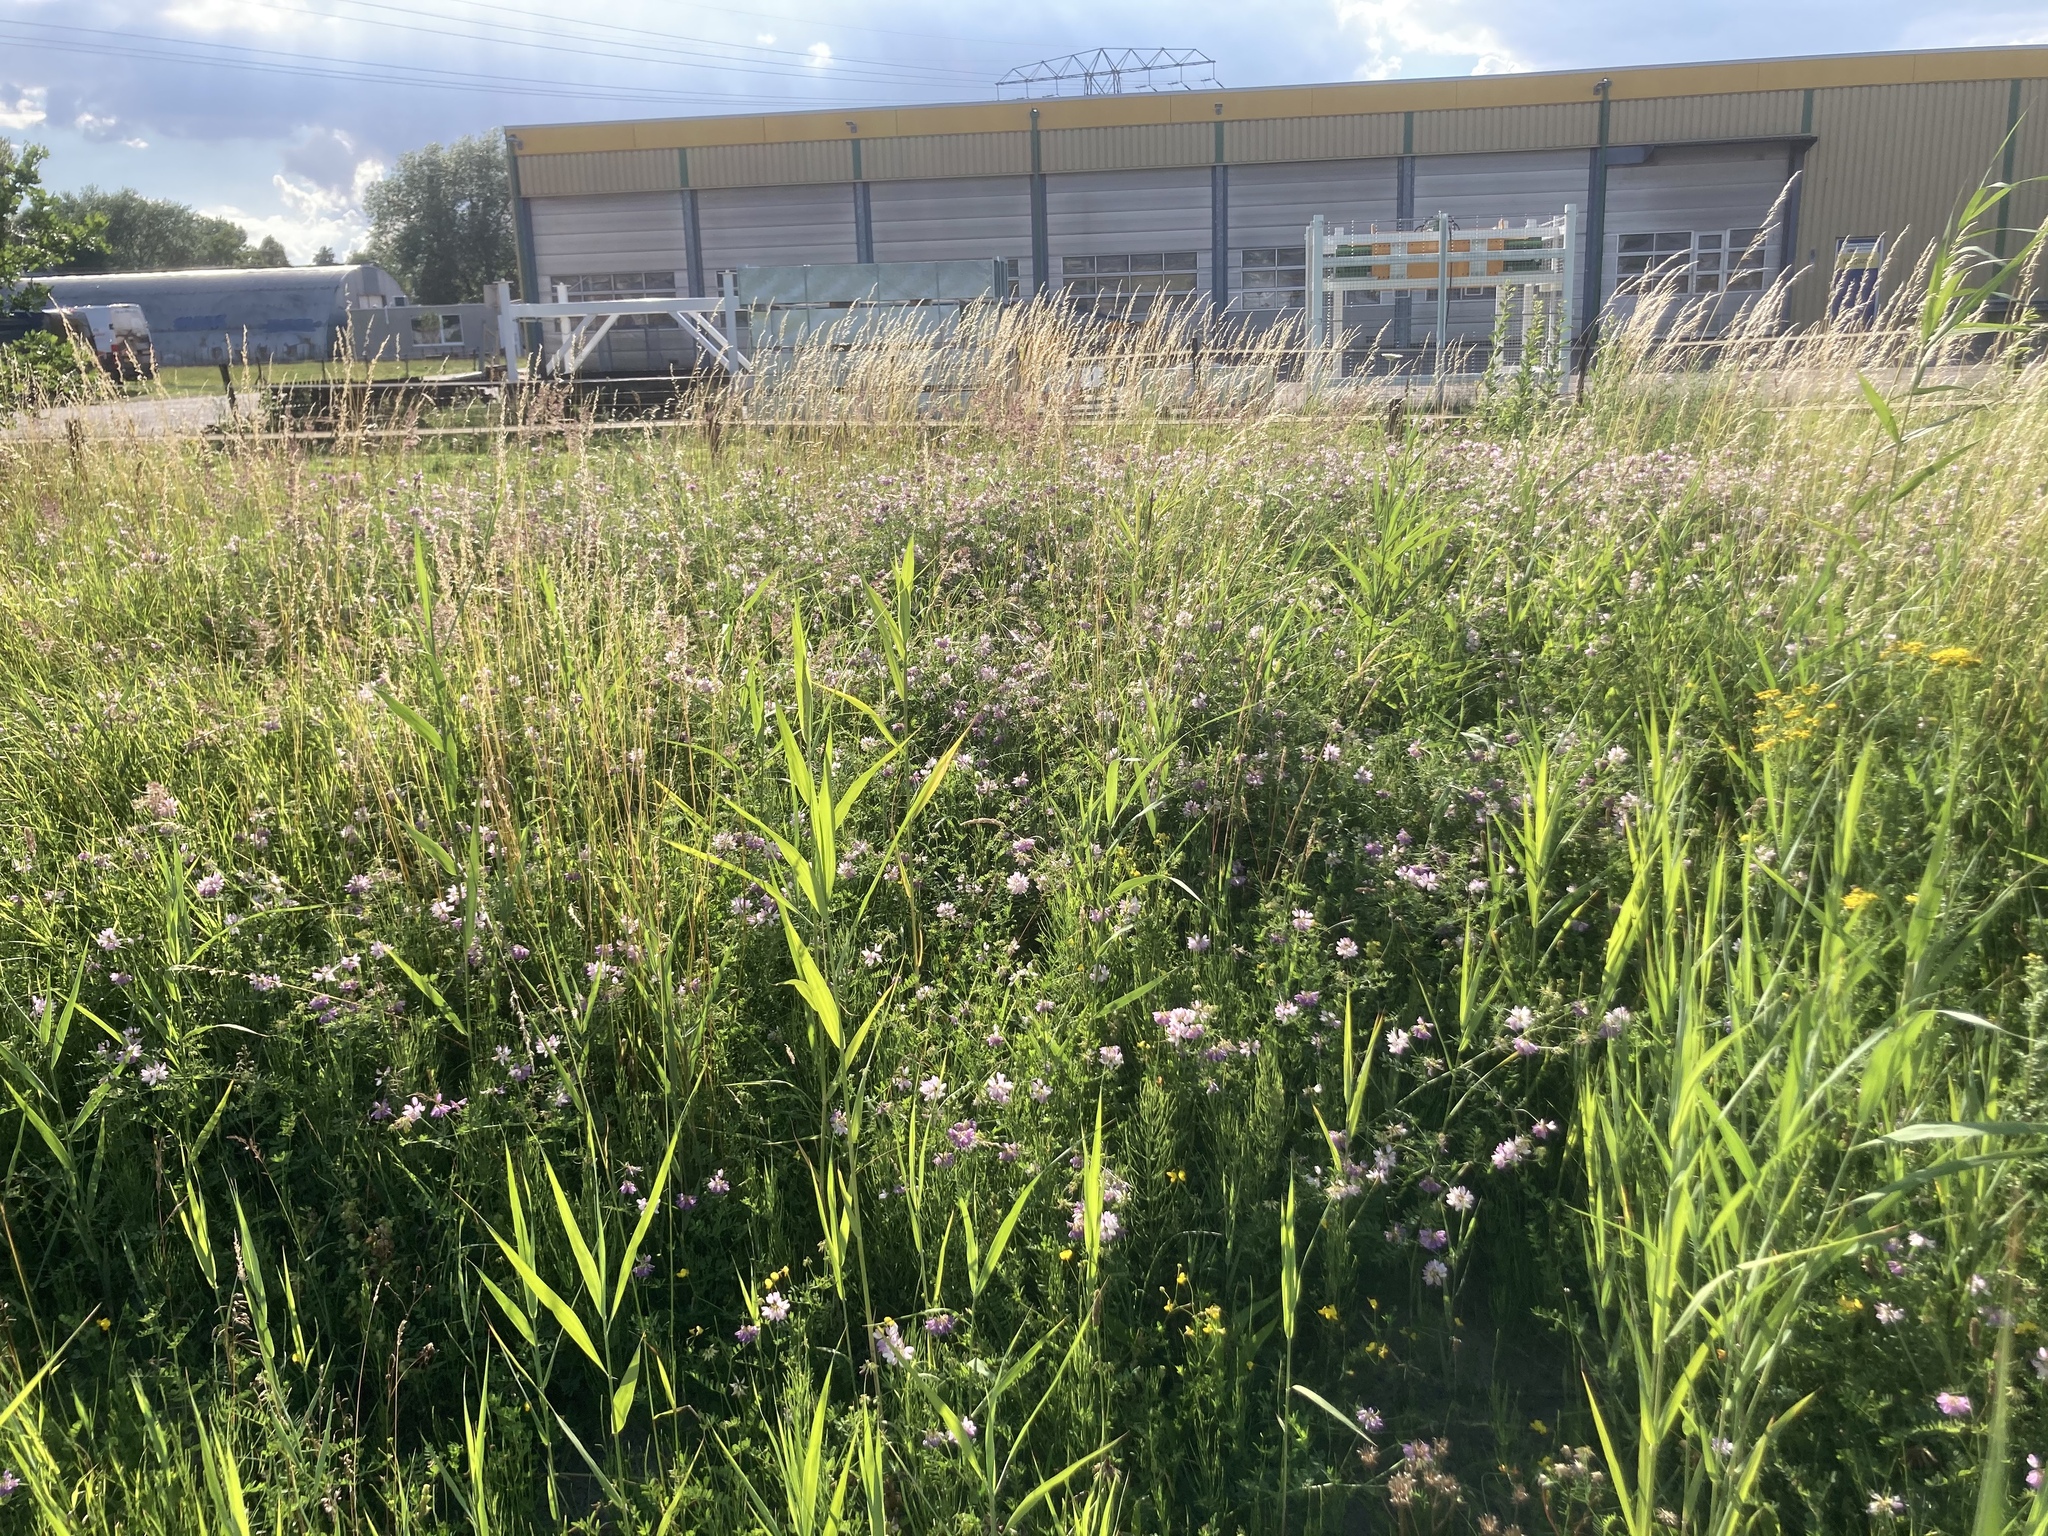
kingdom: Plantae
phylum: Tracheophyta
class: Magnoliopsida
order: Fabales
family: Fabaceae
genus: Coronilla
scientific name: Coronilla varia
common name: Crownvetch
